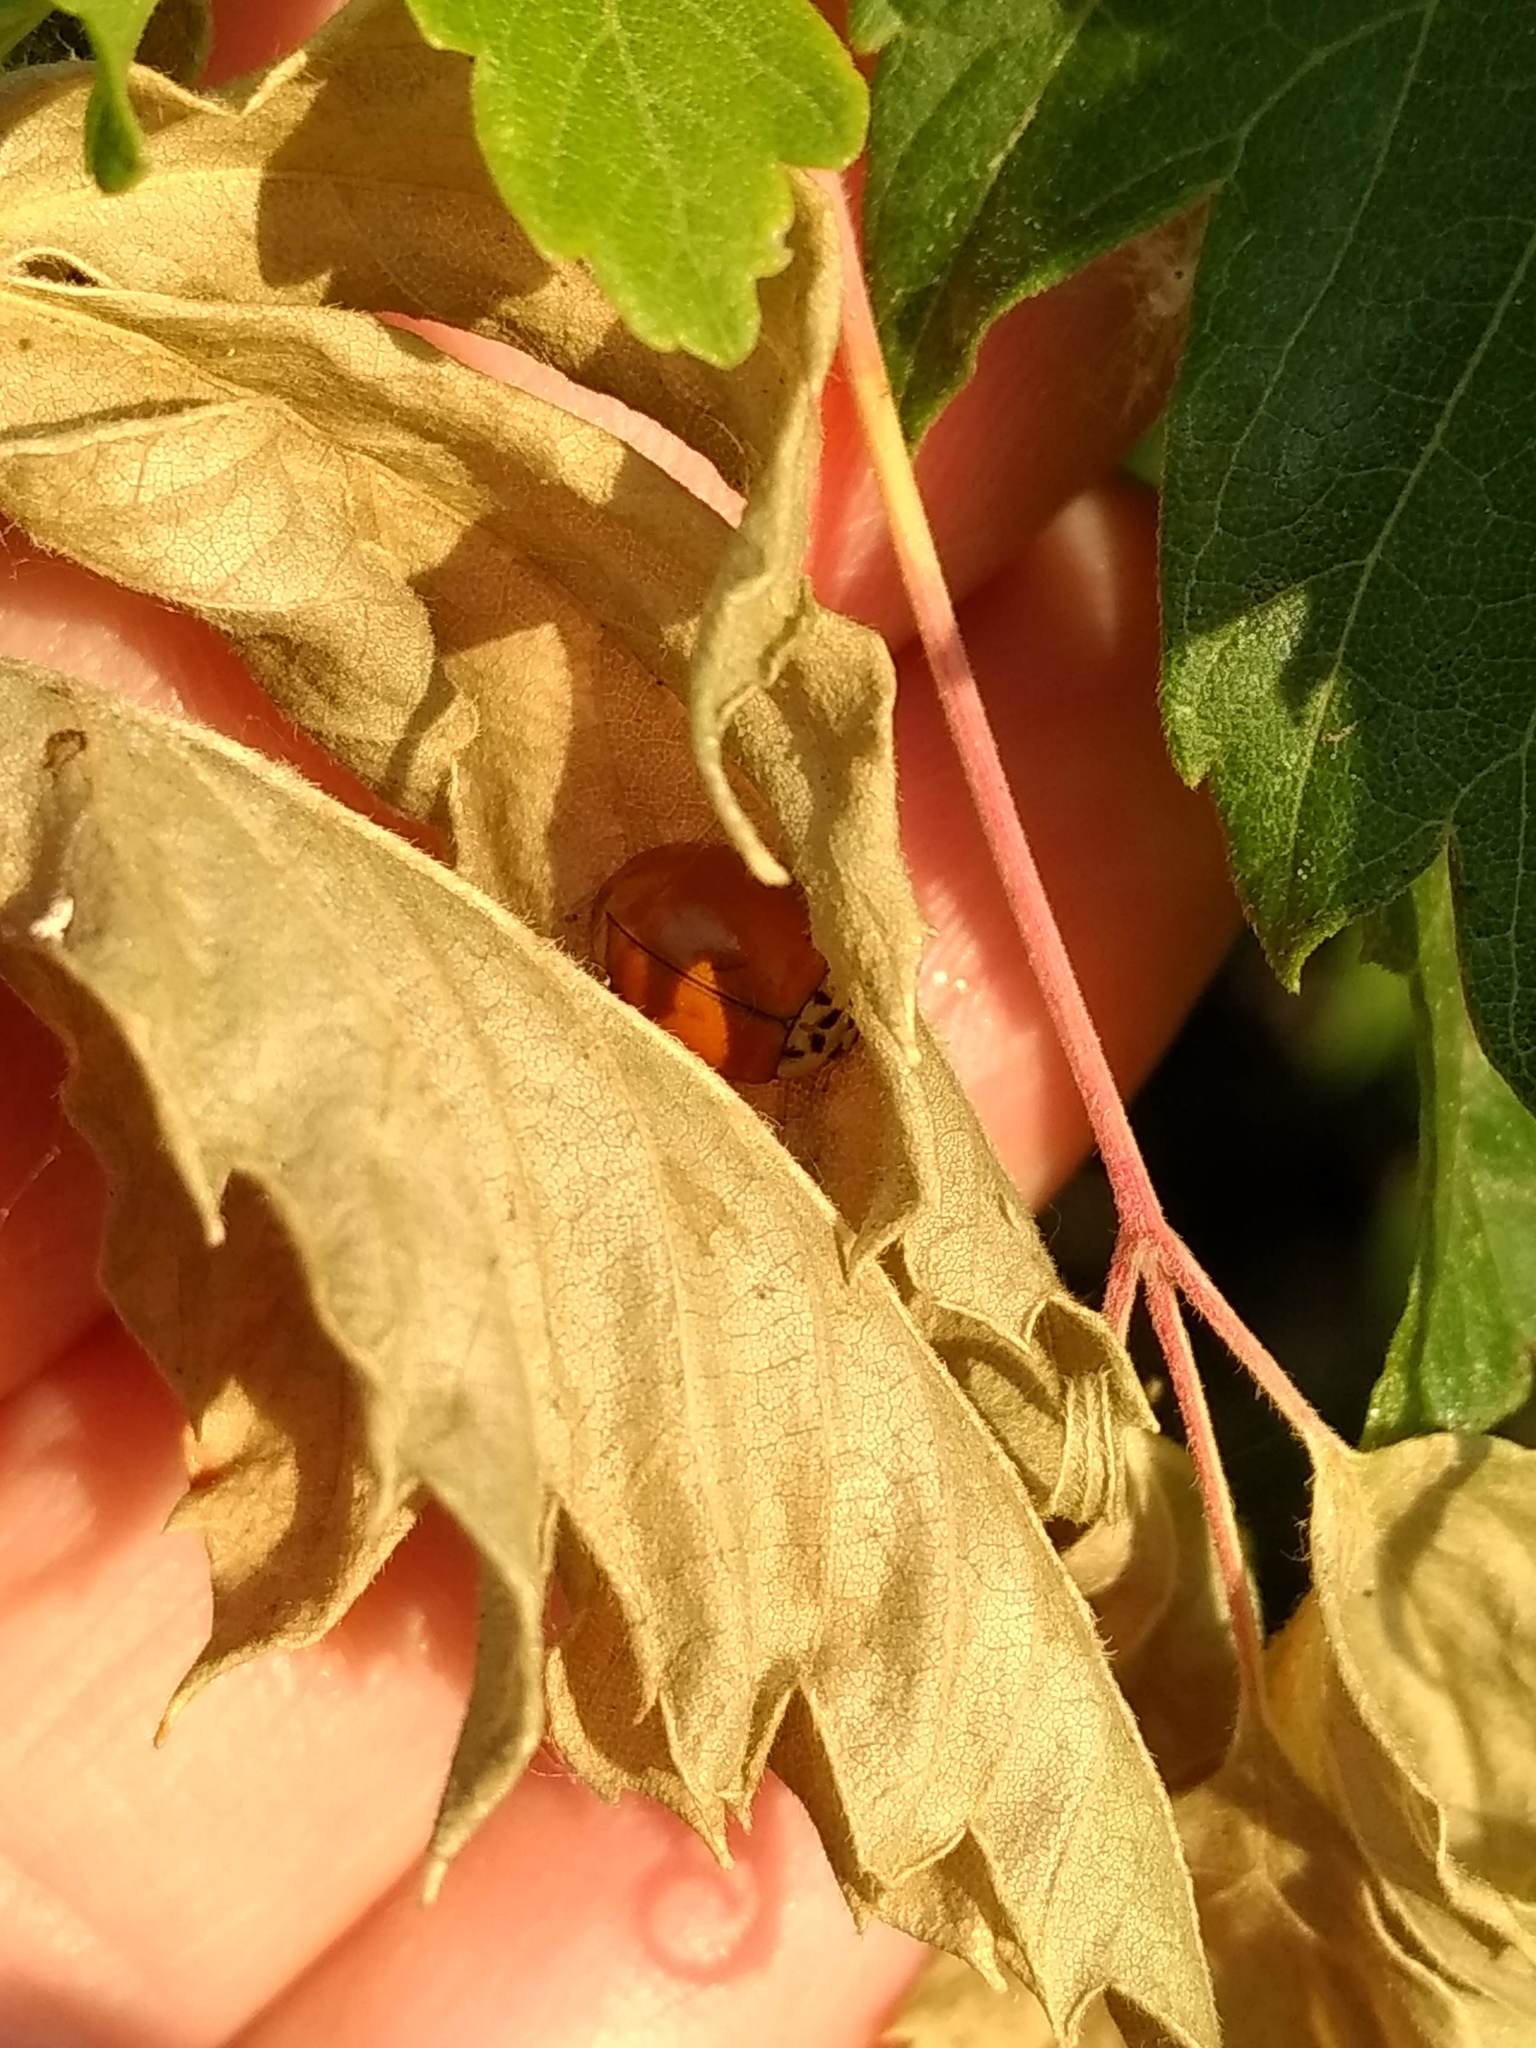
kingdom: Animalia
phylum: Arthropoda
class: Insecta
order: Coleoptera
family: Coccinellidae
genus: Harmonia
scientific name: Harmonia axyridis
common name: Harlequin ladybird
